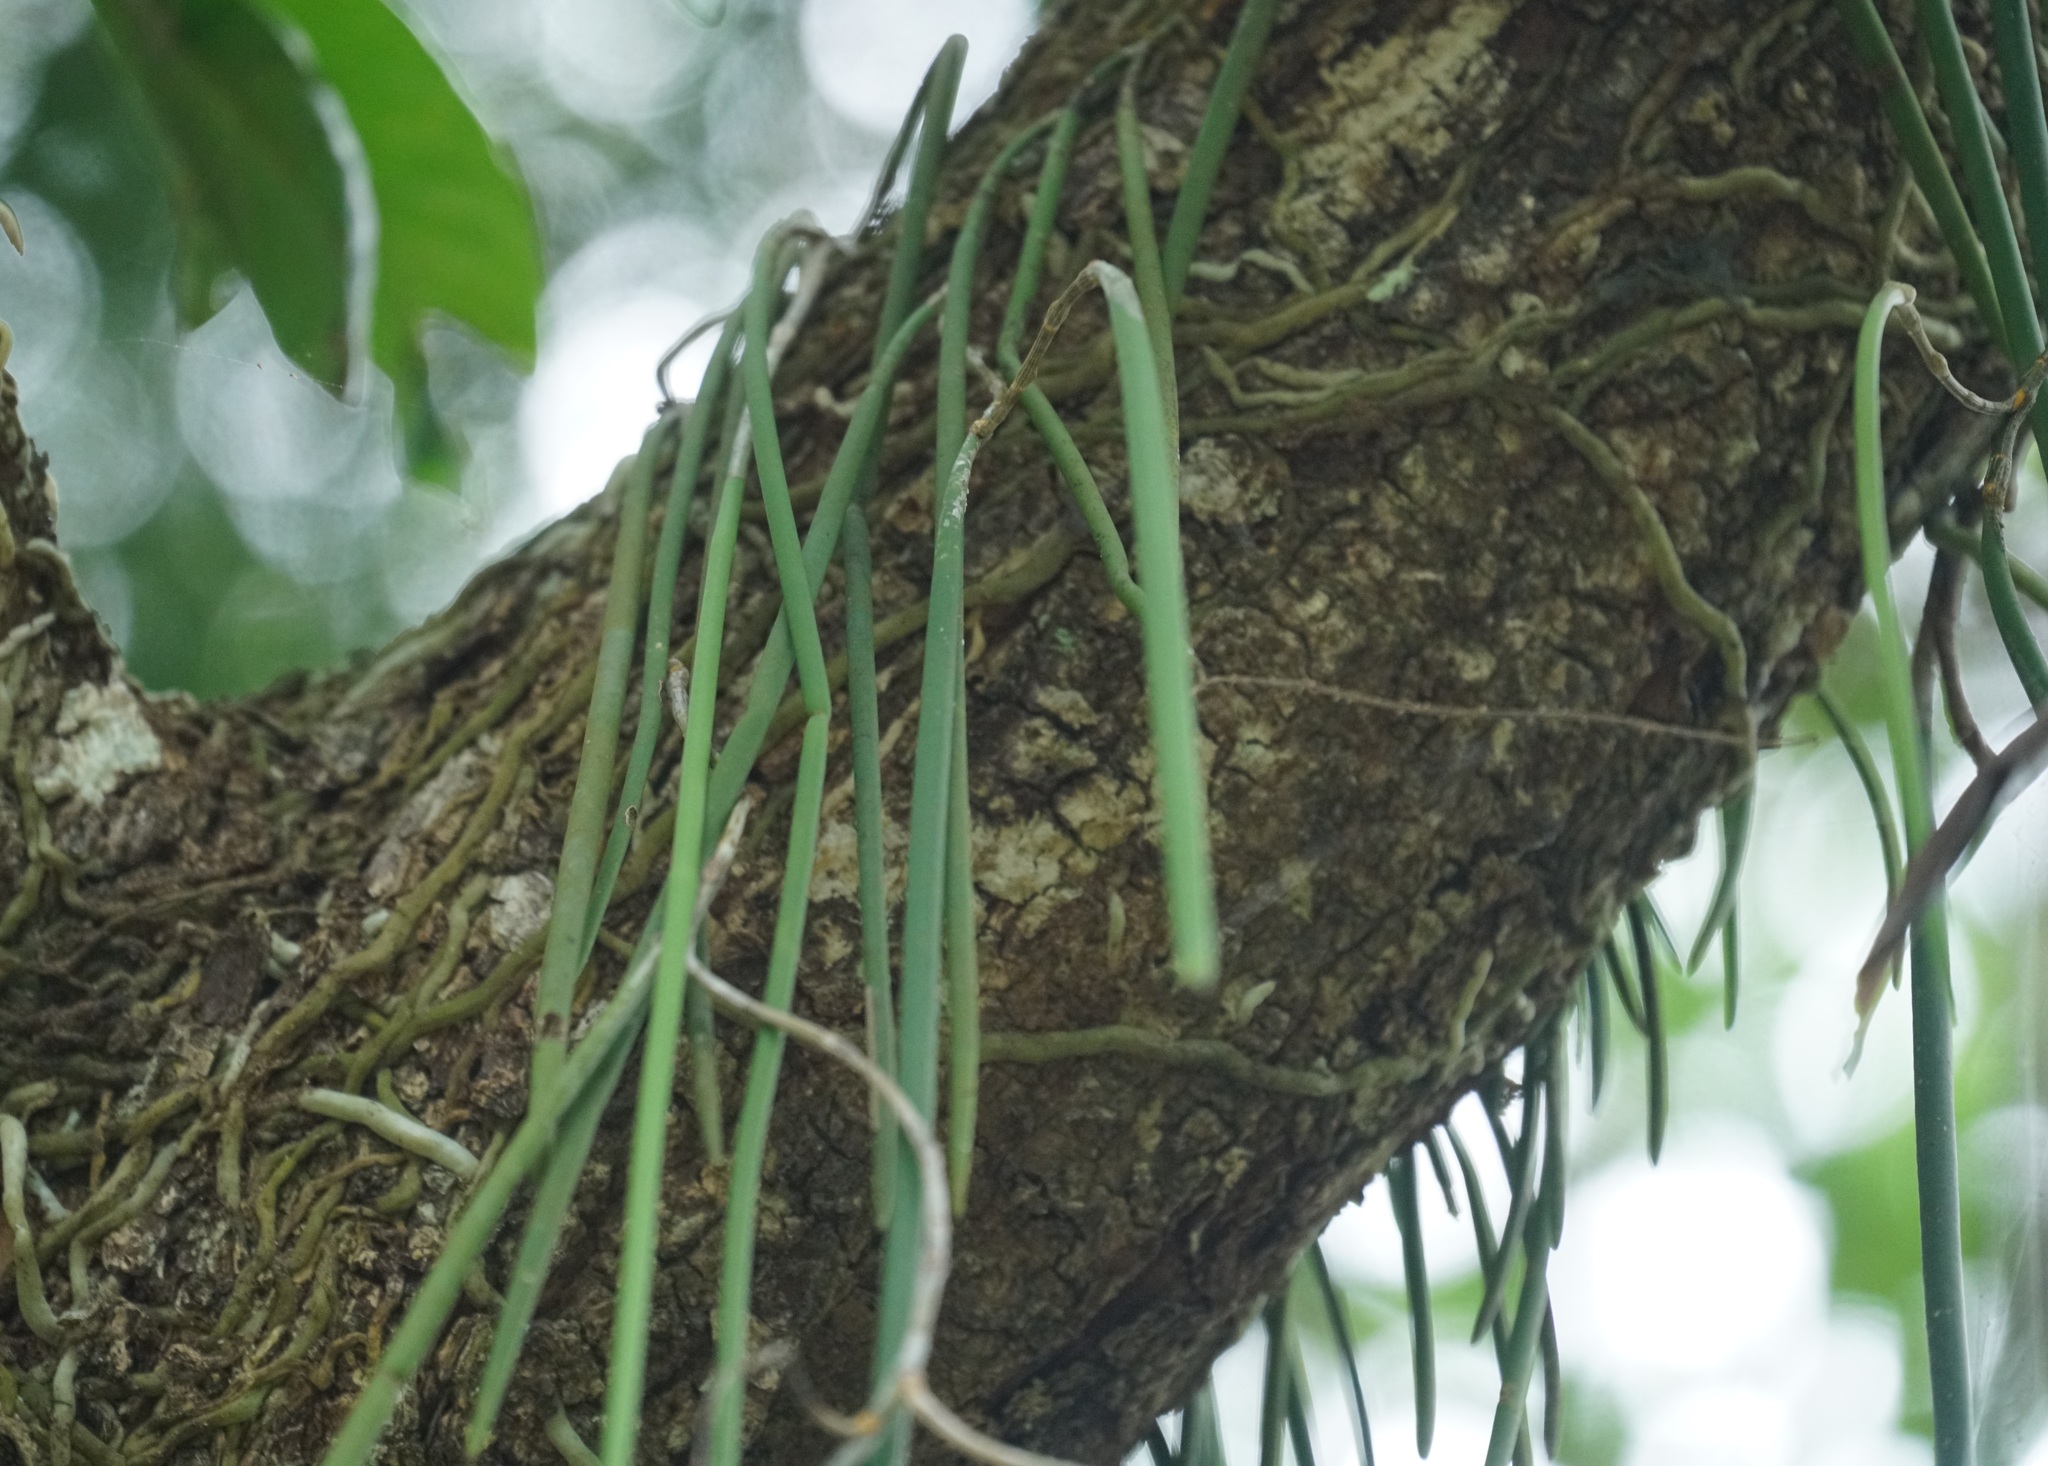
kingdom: Plantae
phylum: Tracheophyta
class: Liliopsida
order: Asparagales
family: Orchidaceae
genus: Dendrobium
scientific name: Dendrobium teretifolium
